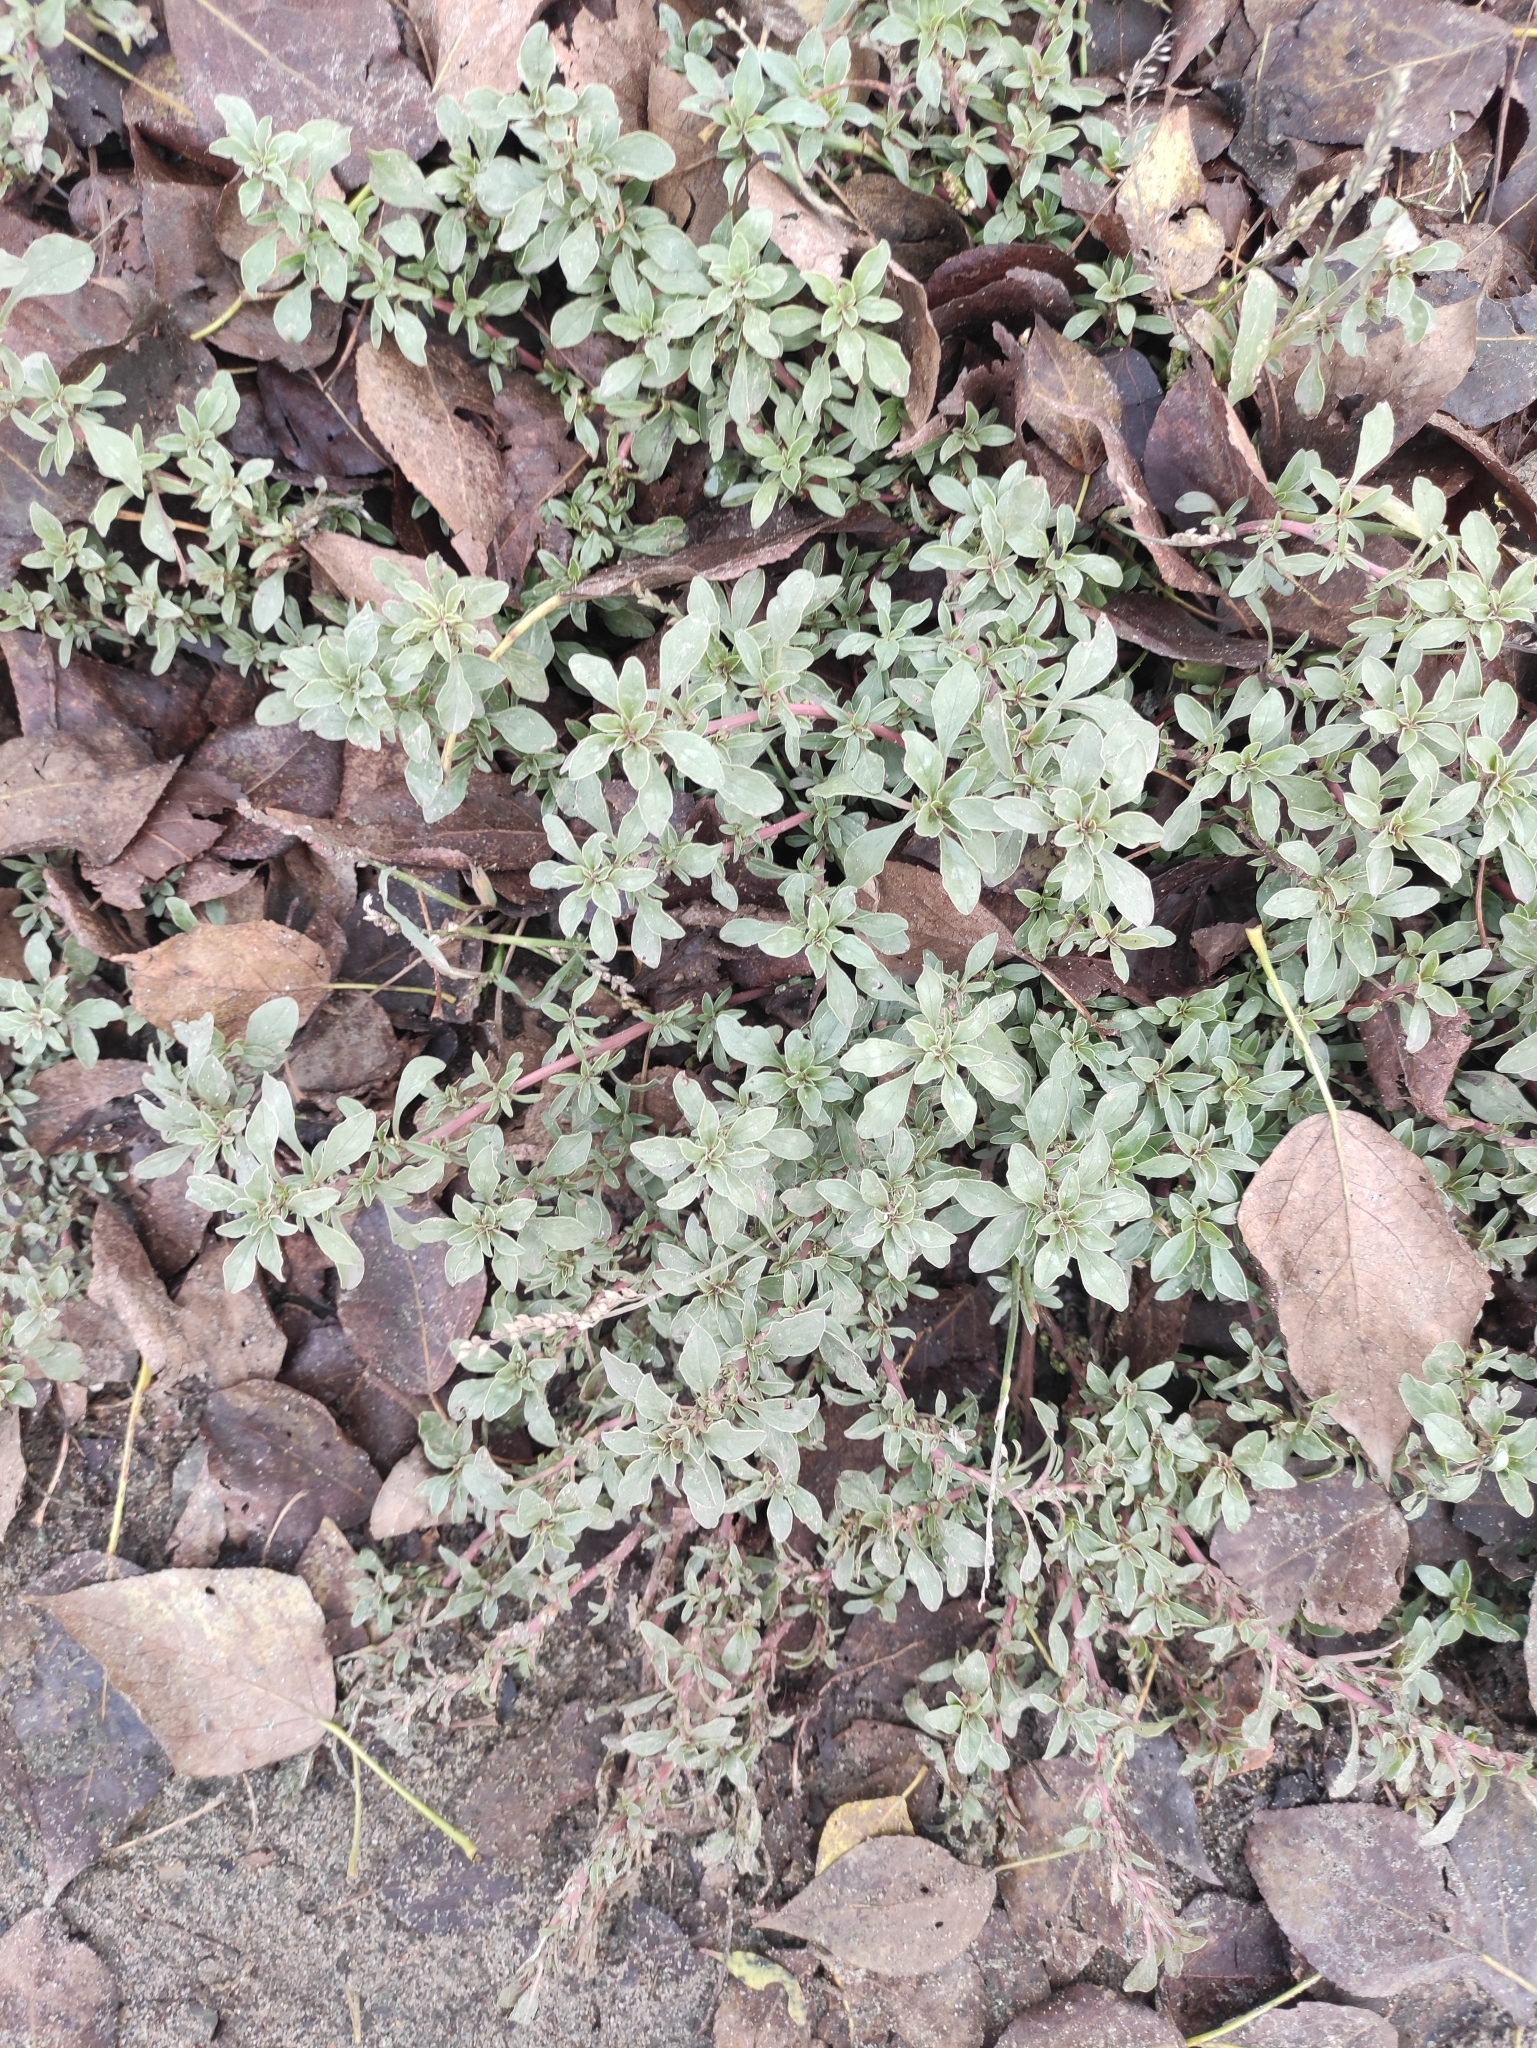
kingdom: Plantae
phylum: Tracheophyta
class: Magnoliopsida
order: Caryophyllales
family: Amaranthaceae
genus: Amaranthus
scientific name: Amaranthus blitoides
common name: Prostrate pigweed
